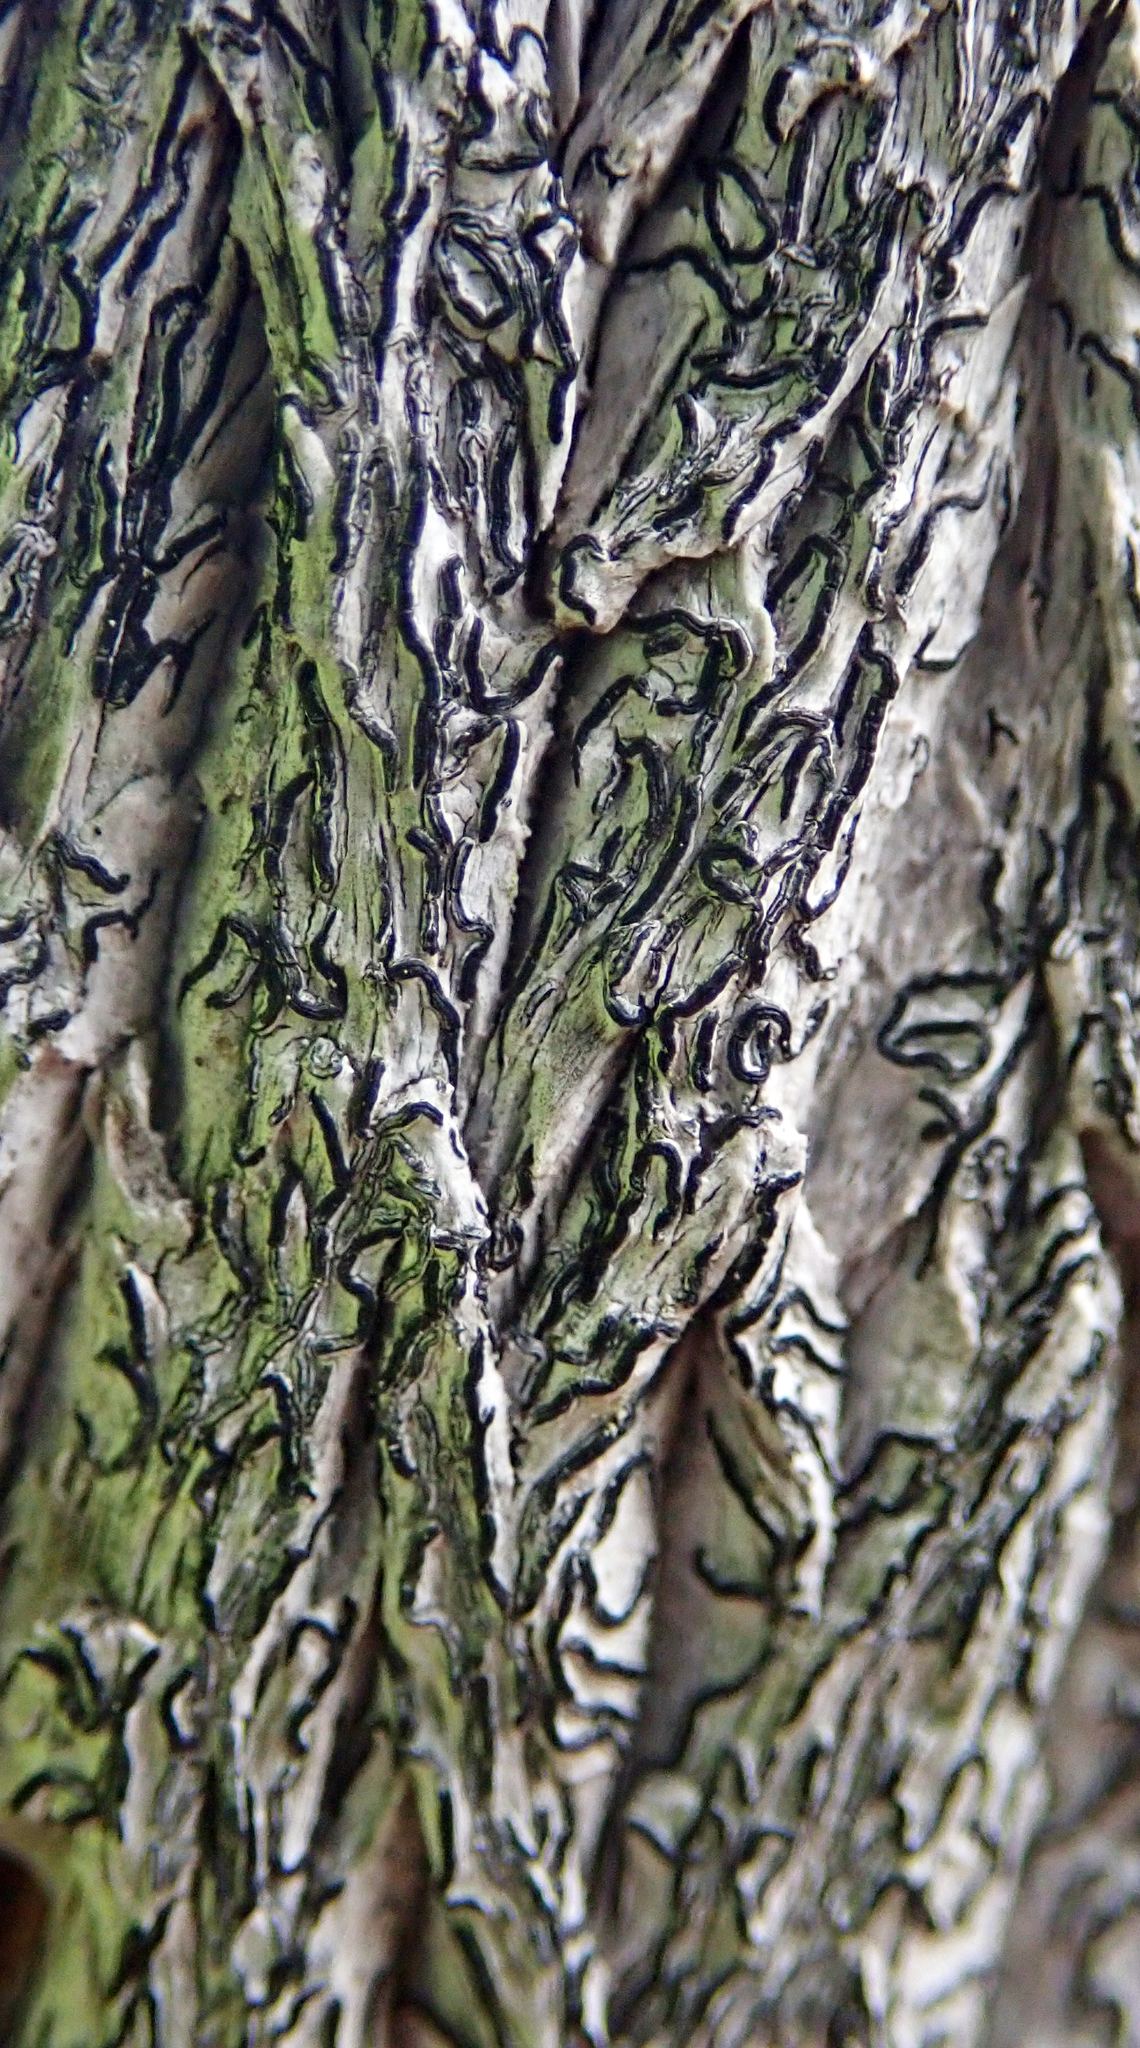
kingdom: Fungi
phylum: Ascomycota
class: Lecanoromycetes
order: Ostropales
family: Graphidaceae
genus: Graphis
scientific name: Graphis librata
